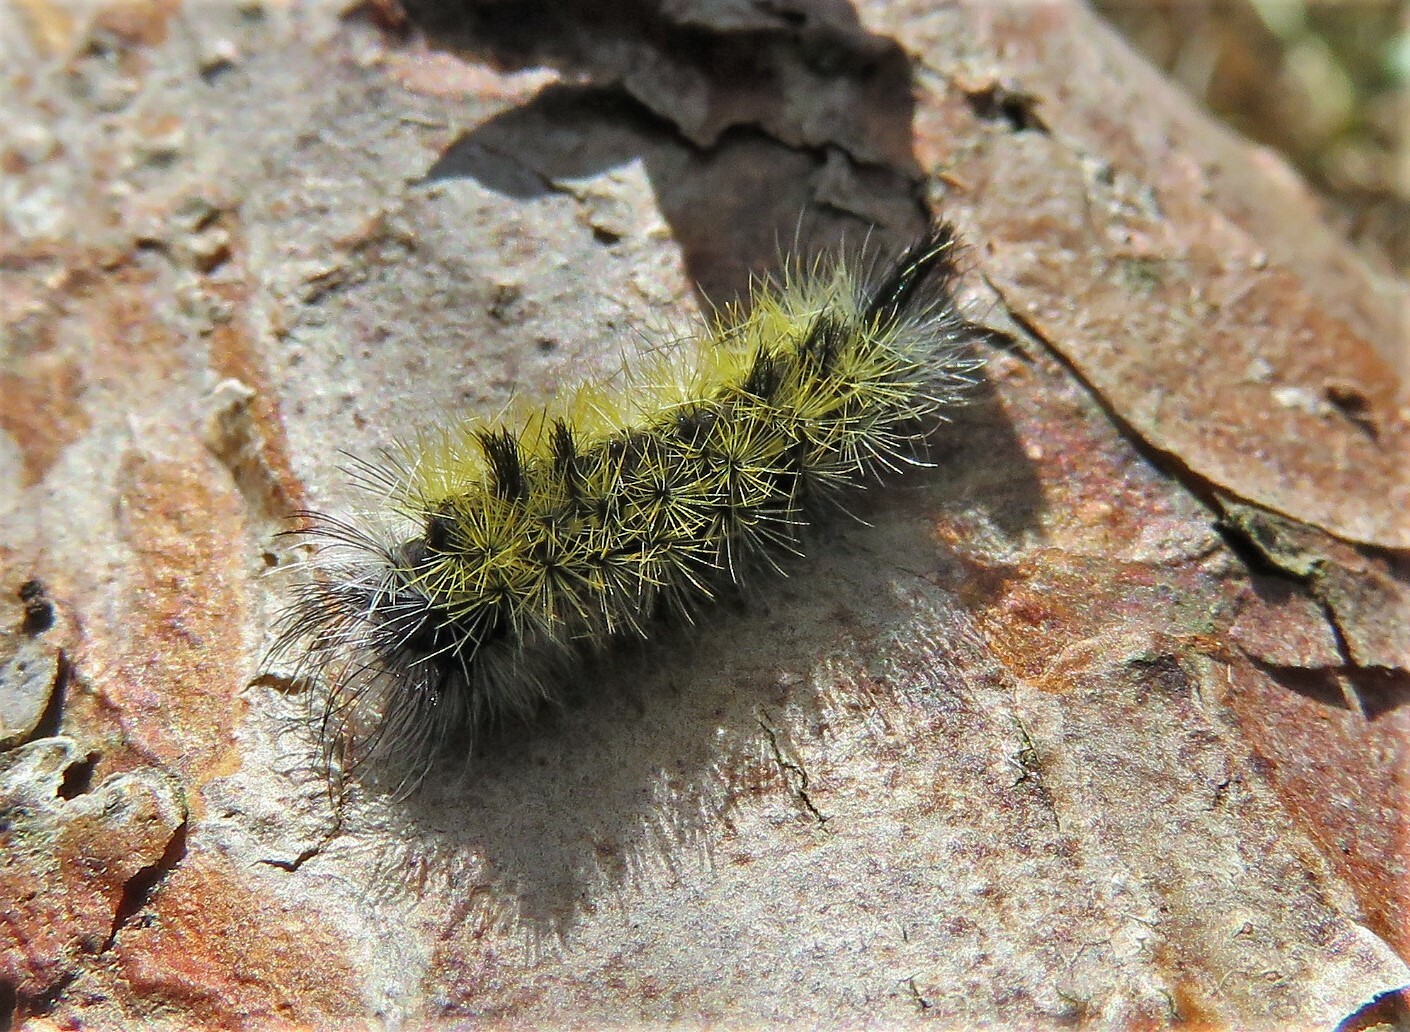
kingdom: Animalia
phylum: Arthropoda
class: Insecta
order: Lepidoptera
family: Erebidae
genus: Ctenucha
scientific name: Ctenucha virginica
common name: Virginia ctenucha moth
